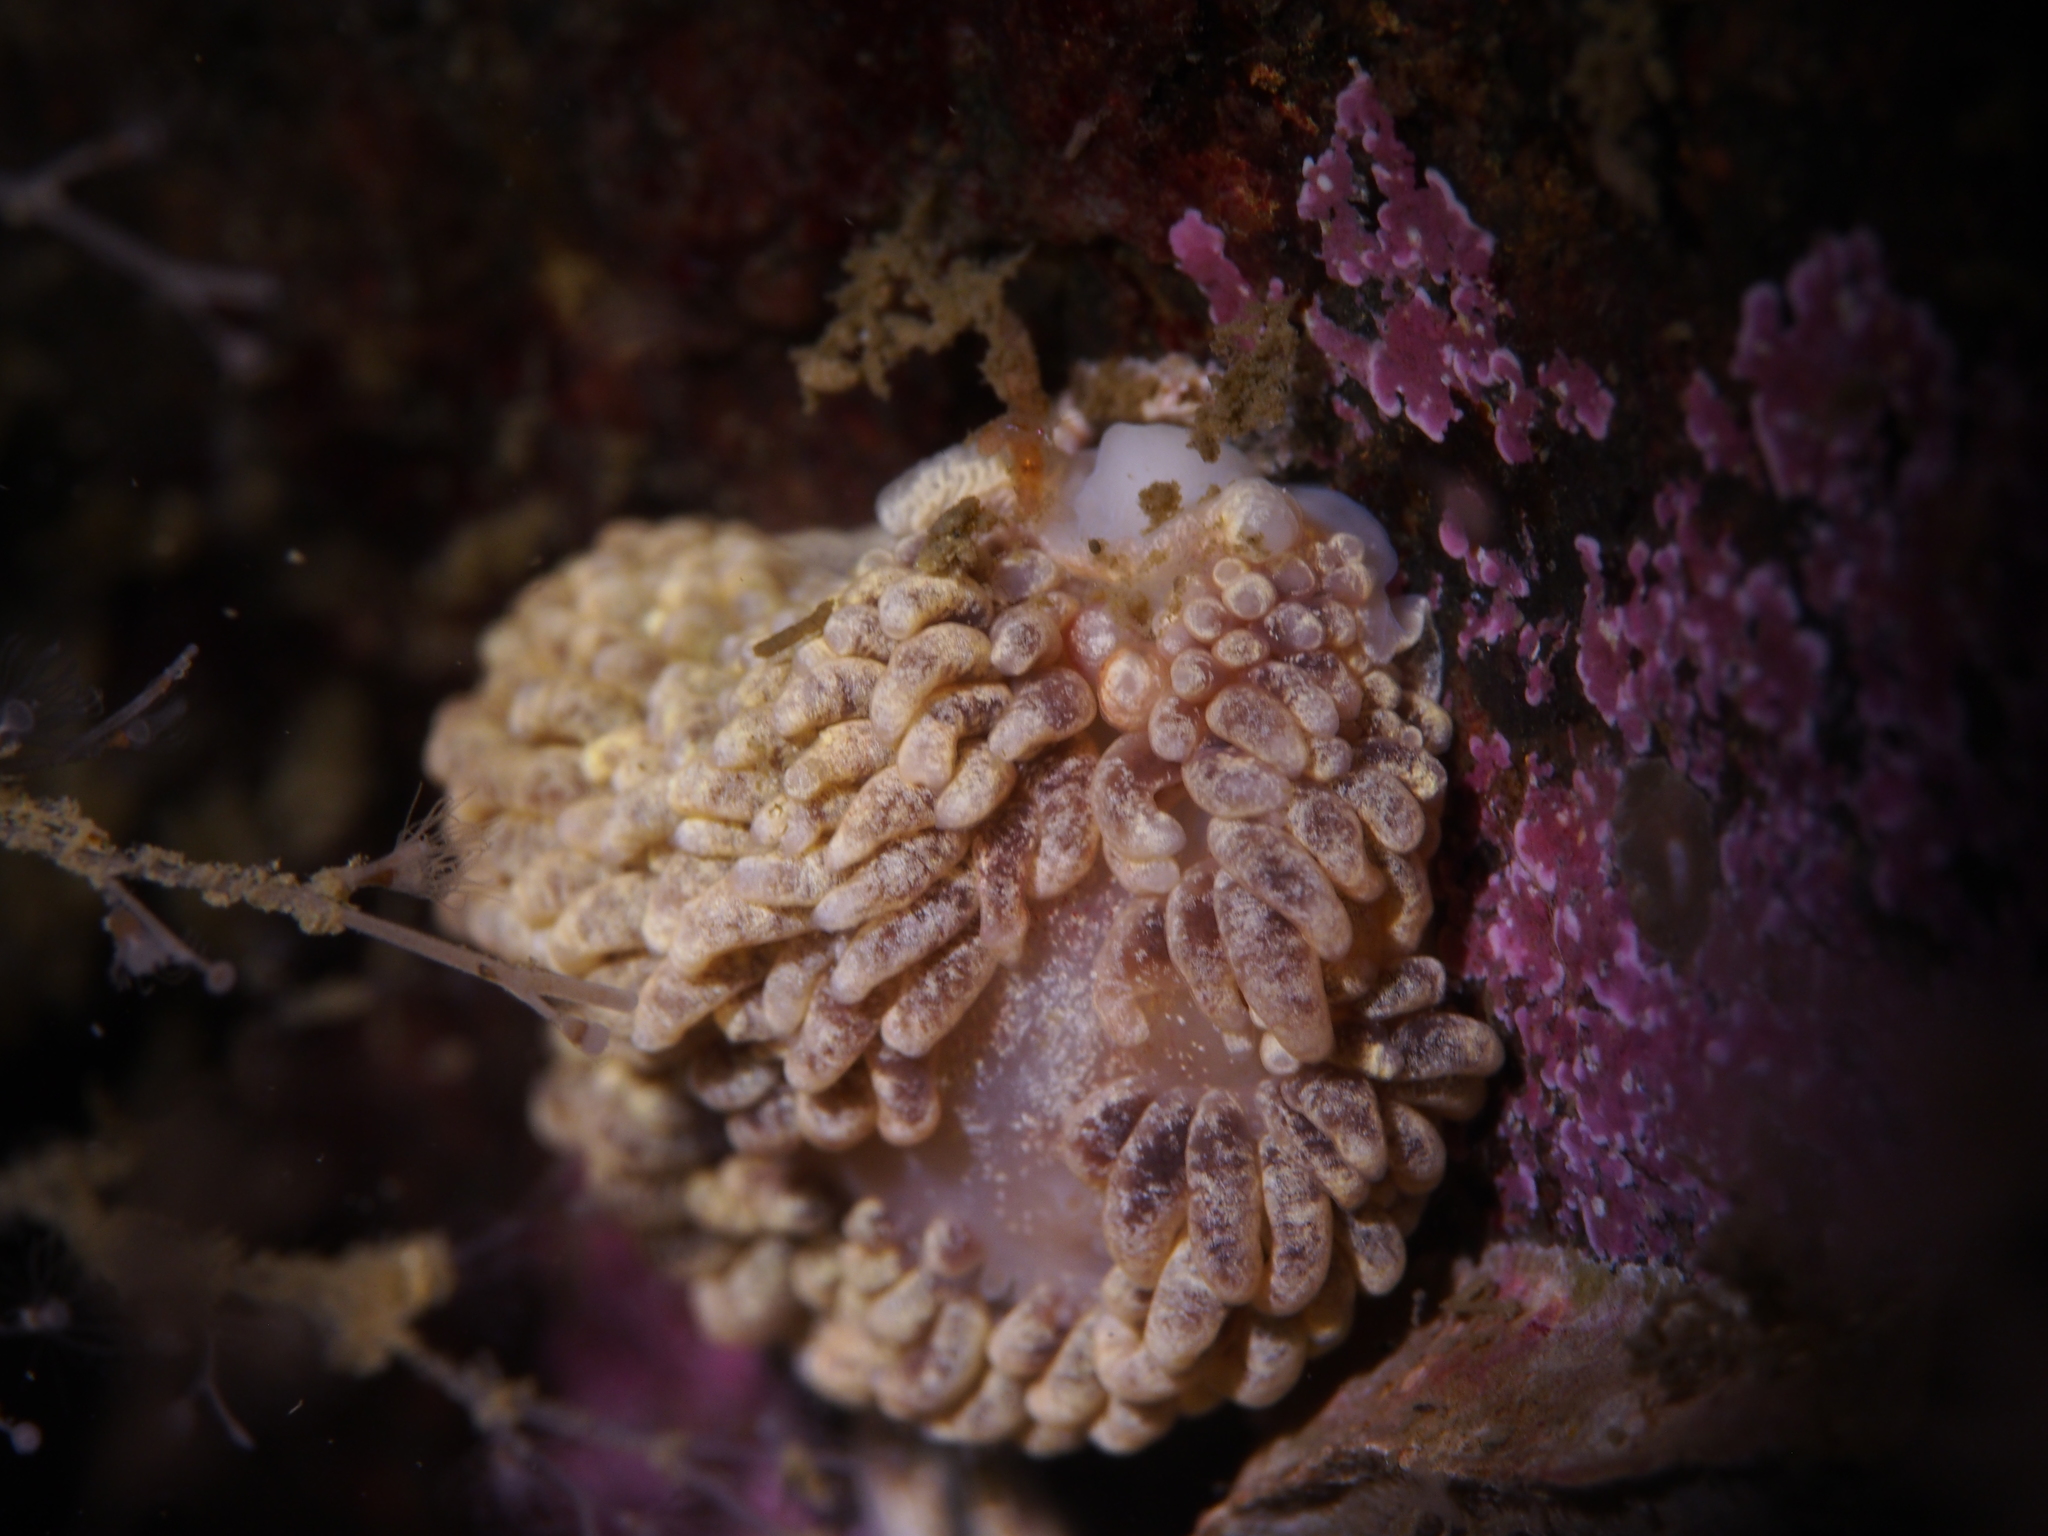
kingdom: Animalia
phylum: Mollusca
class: Gastropoda
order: Nudibranchia
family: Aeolidiidae
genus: Aeolidia
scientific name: Aeolidia papillosa
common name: Common grey sea slug
